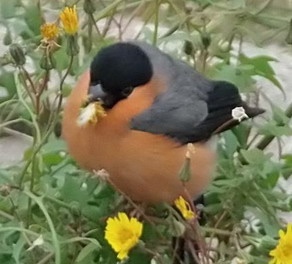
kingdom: Animalia
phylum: Chordata
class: Aves
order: Passeriformes
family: Fringillidae
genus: Pyrrhula
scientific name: Pyrrhula pyrrhula
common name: Eurasian bullfinch
